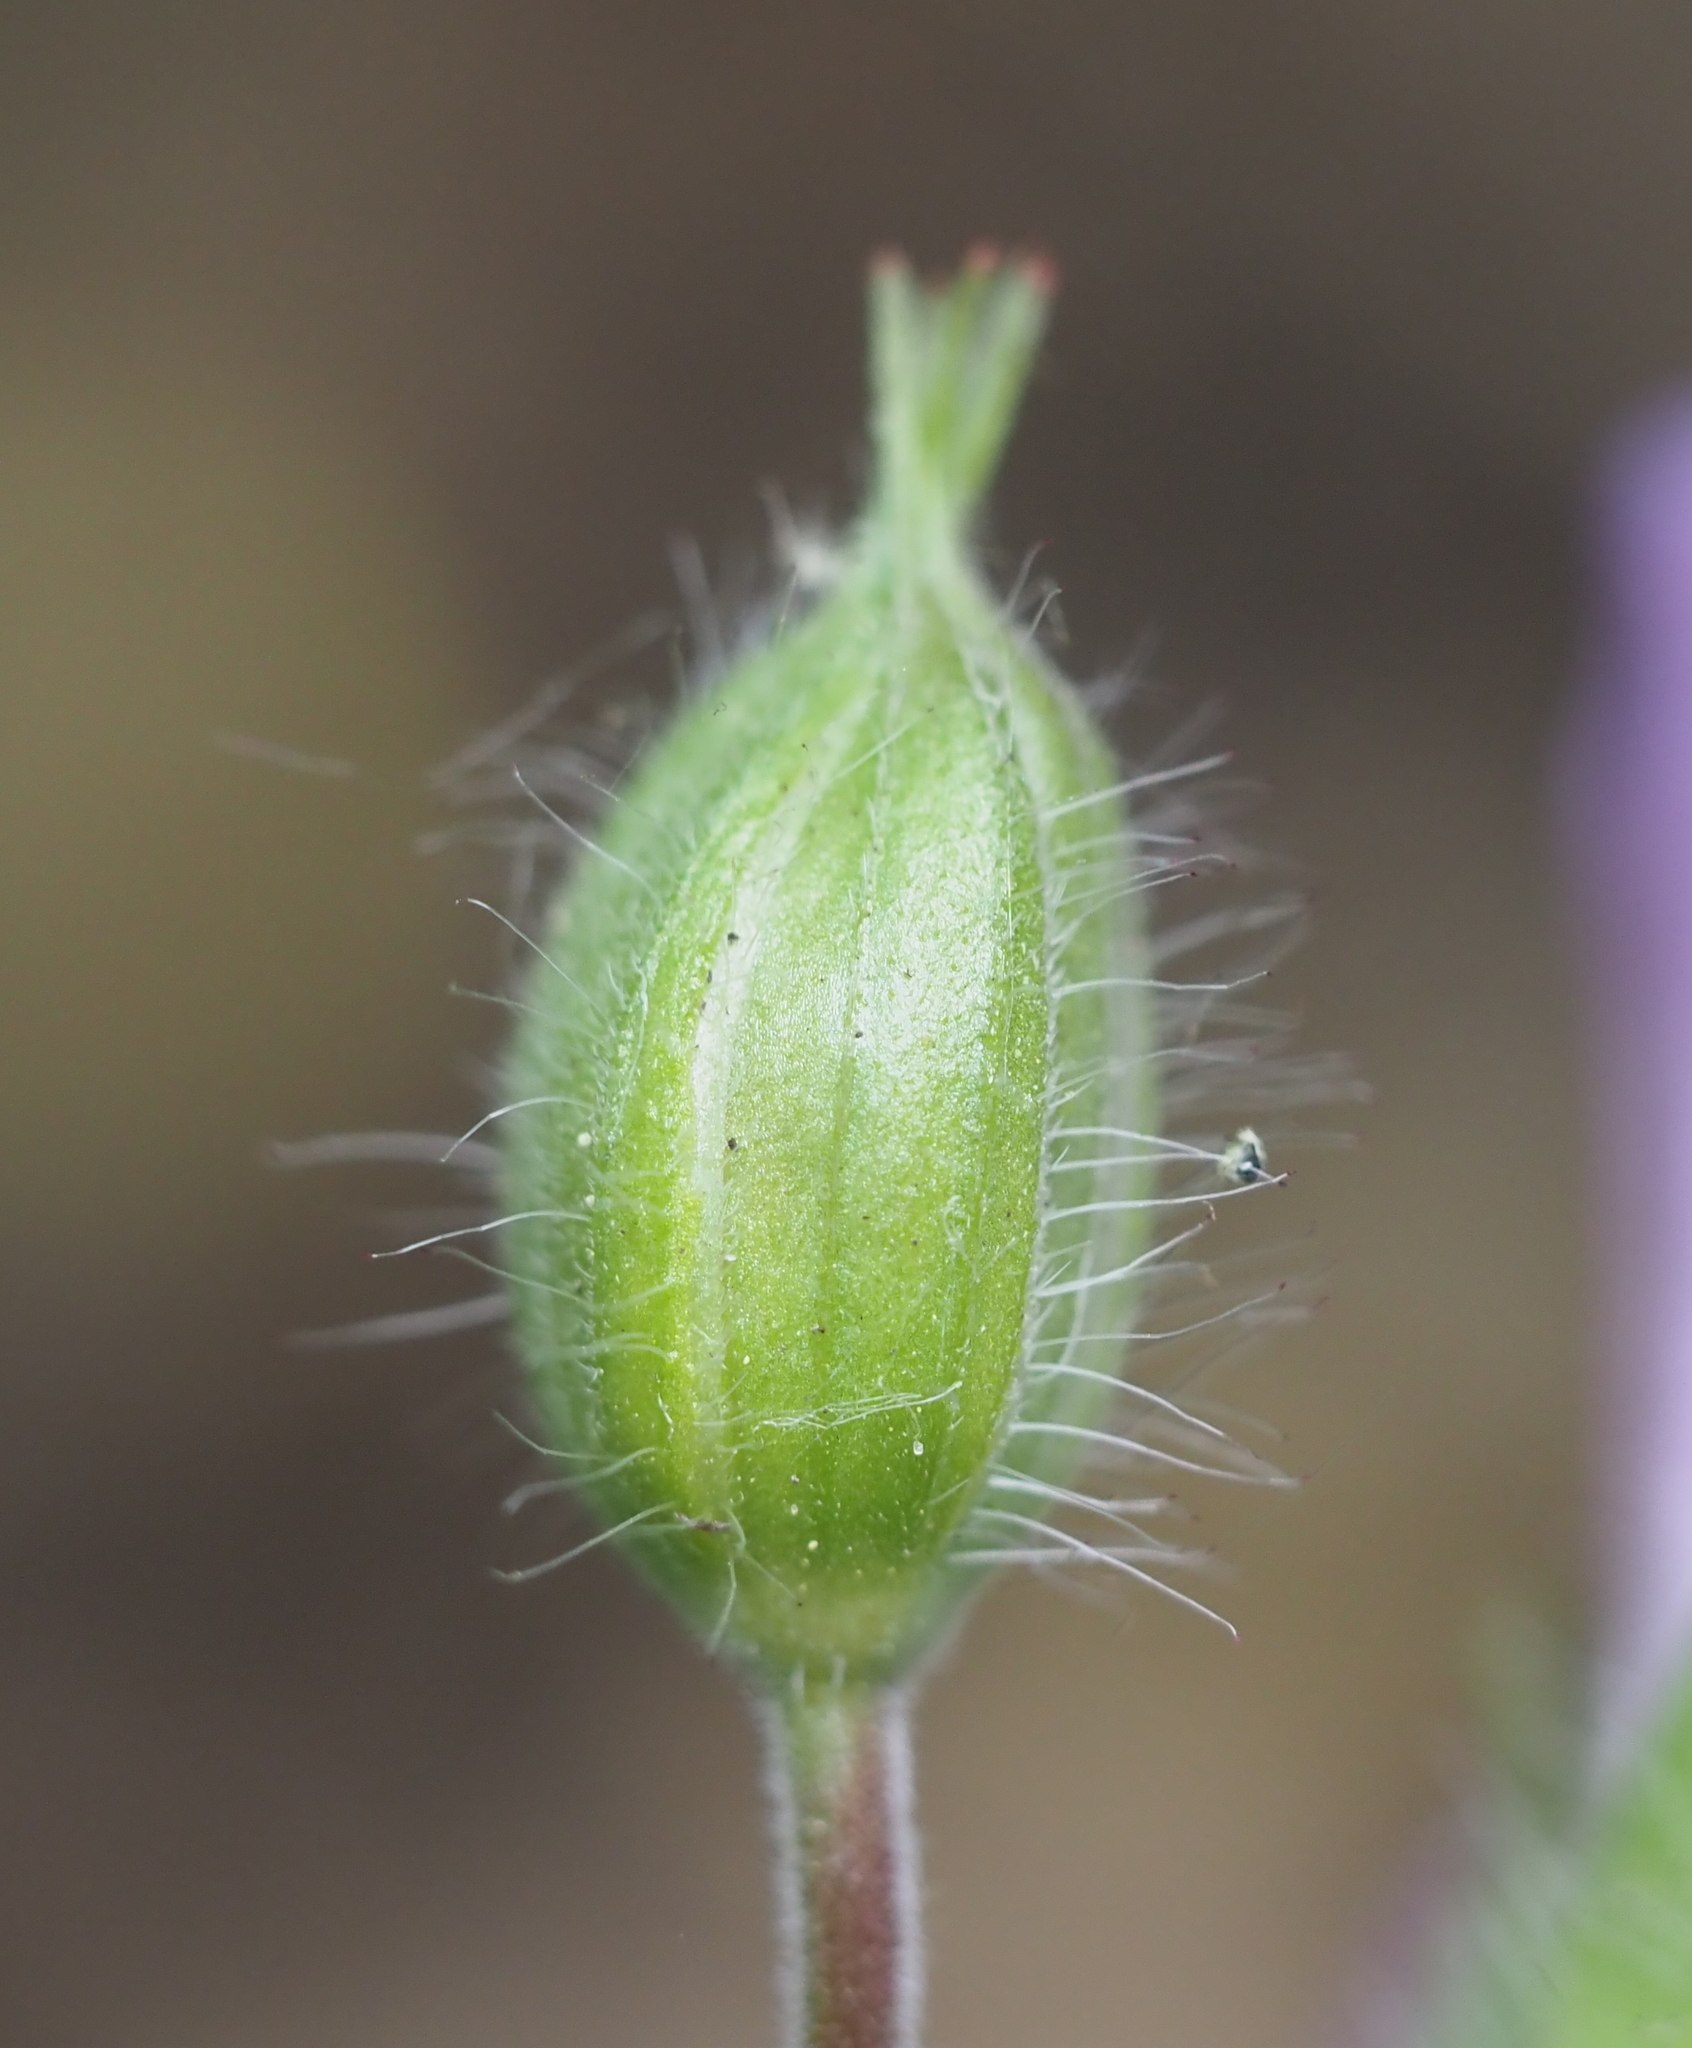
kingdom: Plantae
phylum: Tracheophyta
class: Magnoliopsida
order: Geraniales
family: Geraniaceae
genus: Geranium
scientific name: Geranium maculatum
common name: Spotted geranium
